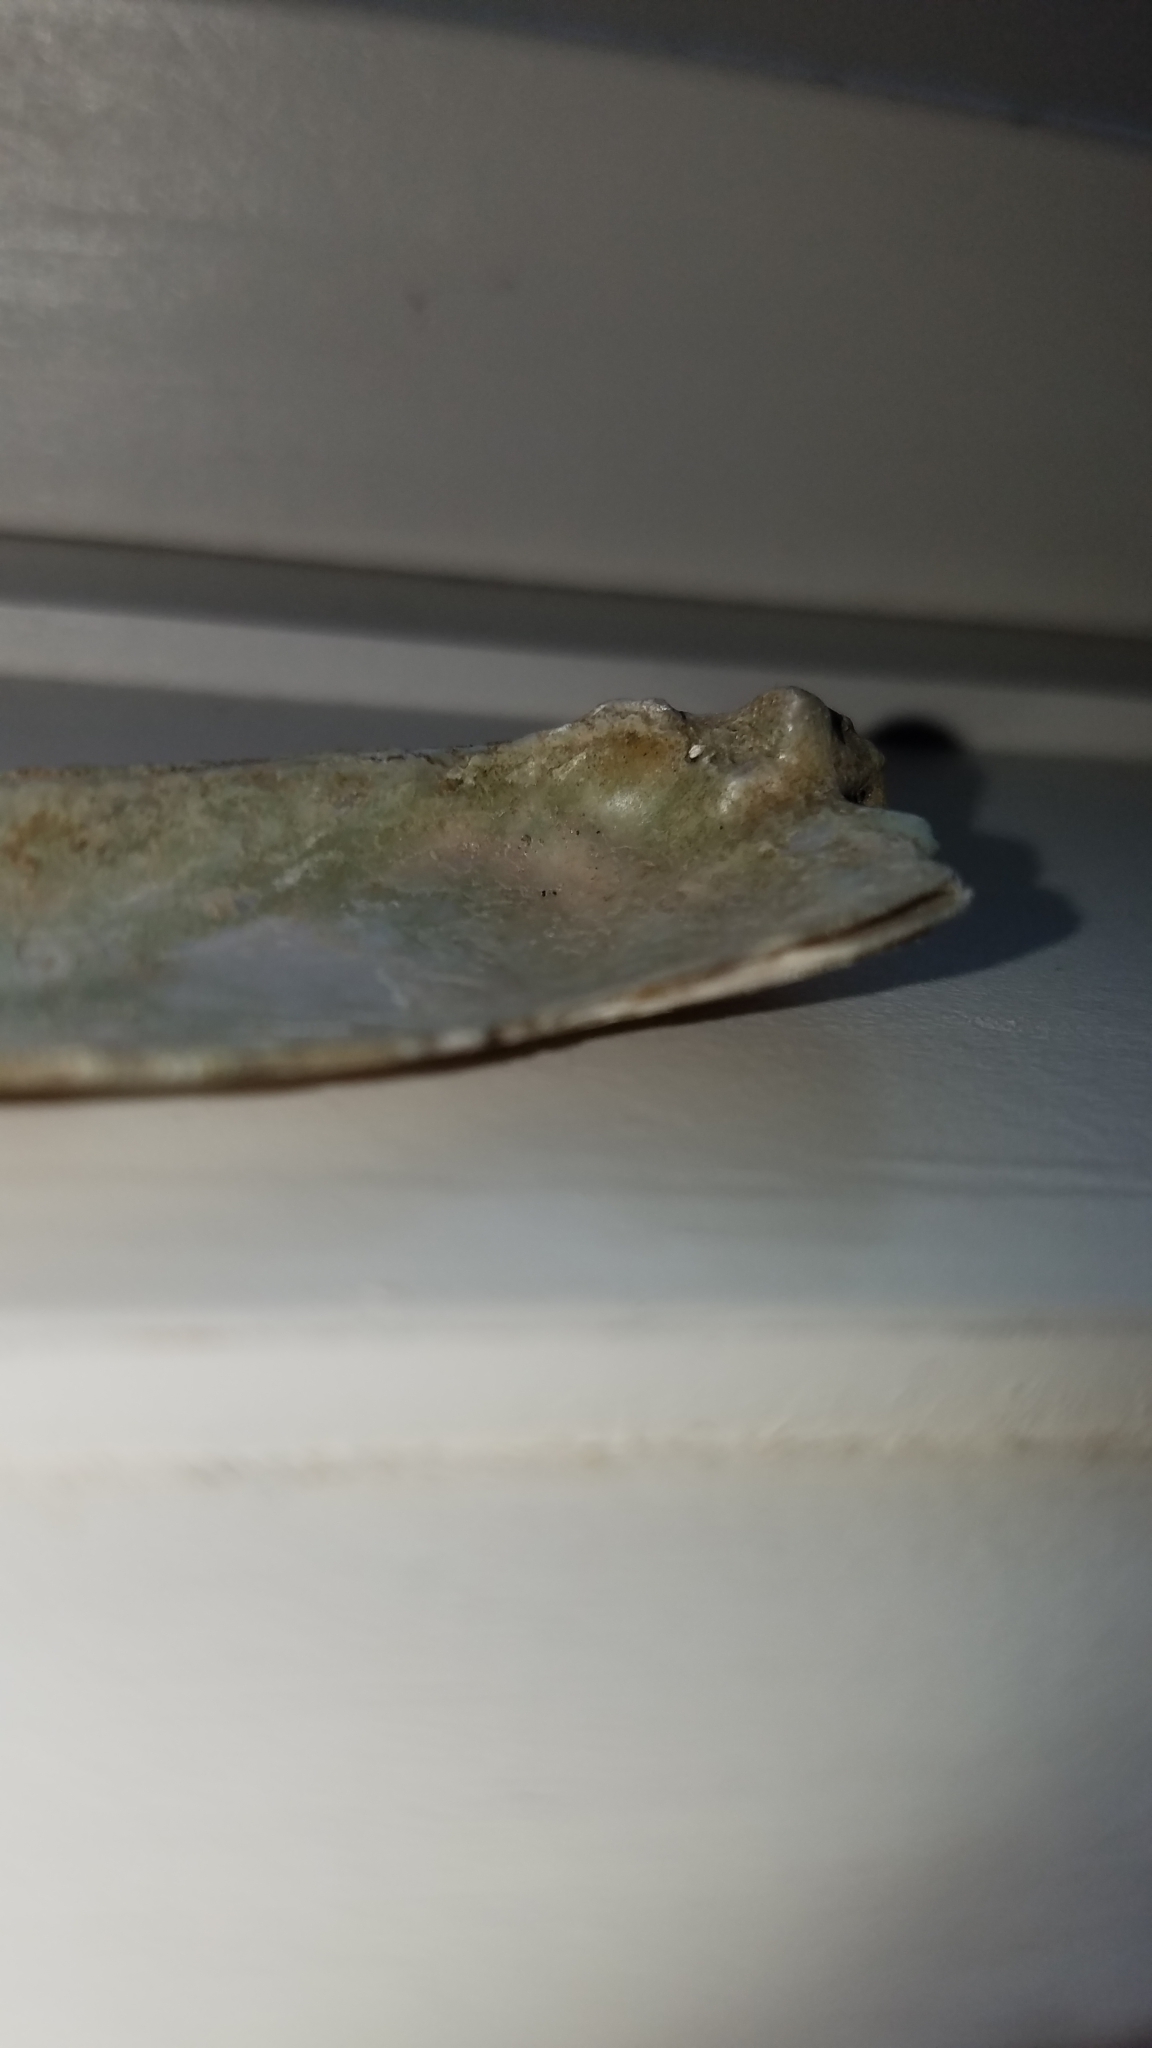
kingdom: Animalia
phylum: Mollusca
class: Bivalvia
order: Unionida
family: Unionidae
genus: Eurynia
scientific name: Eurynia dilatata
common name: Spike
